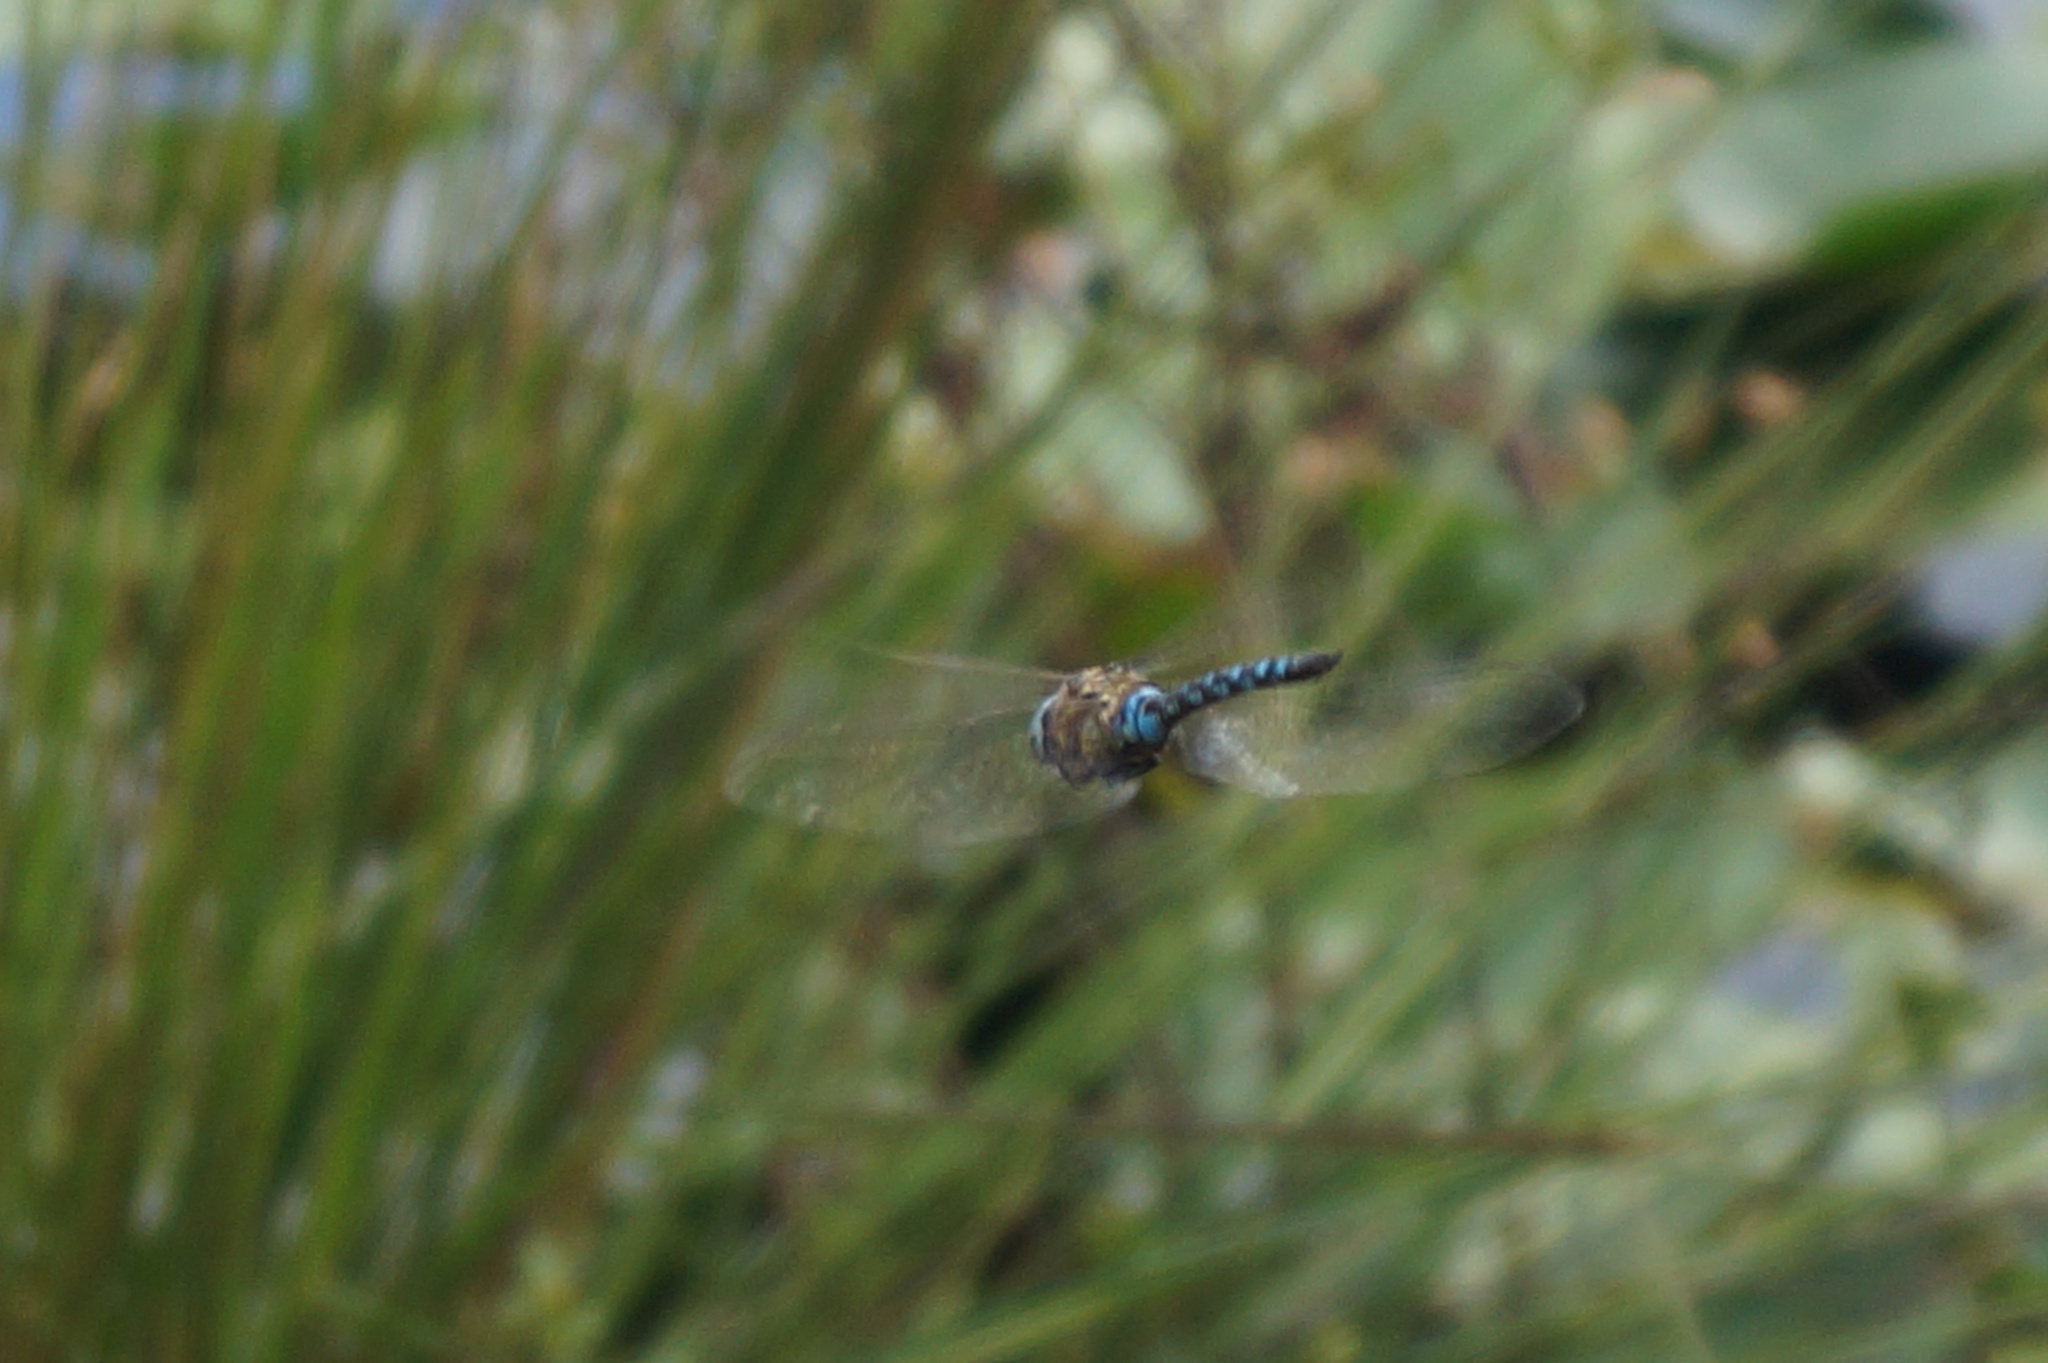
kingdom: Animalia
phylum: Arthropoda
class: Insecta
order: Odonata
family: Aeshnidae
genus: Aeshna
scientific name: Aeshna mixta
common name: Migrant hawker
